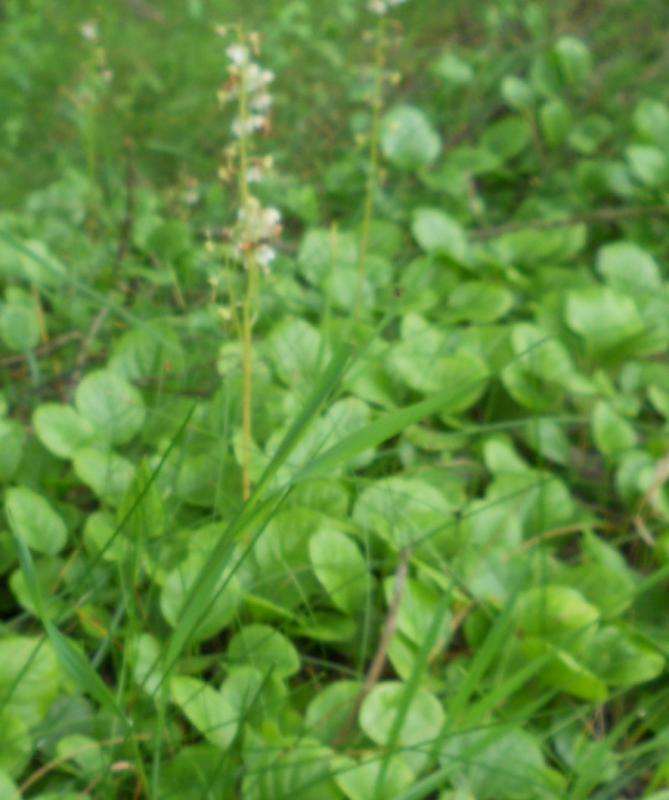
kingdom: Plantae
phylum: Tracheophyta
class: Magnoliopsida
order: Ericales
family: Ericaceae
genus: Pyrola
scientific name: Pyrola rotundifolia
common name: Round-leaved wintergreen
